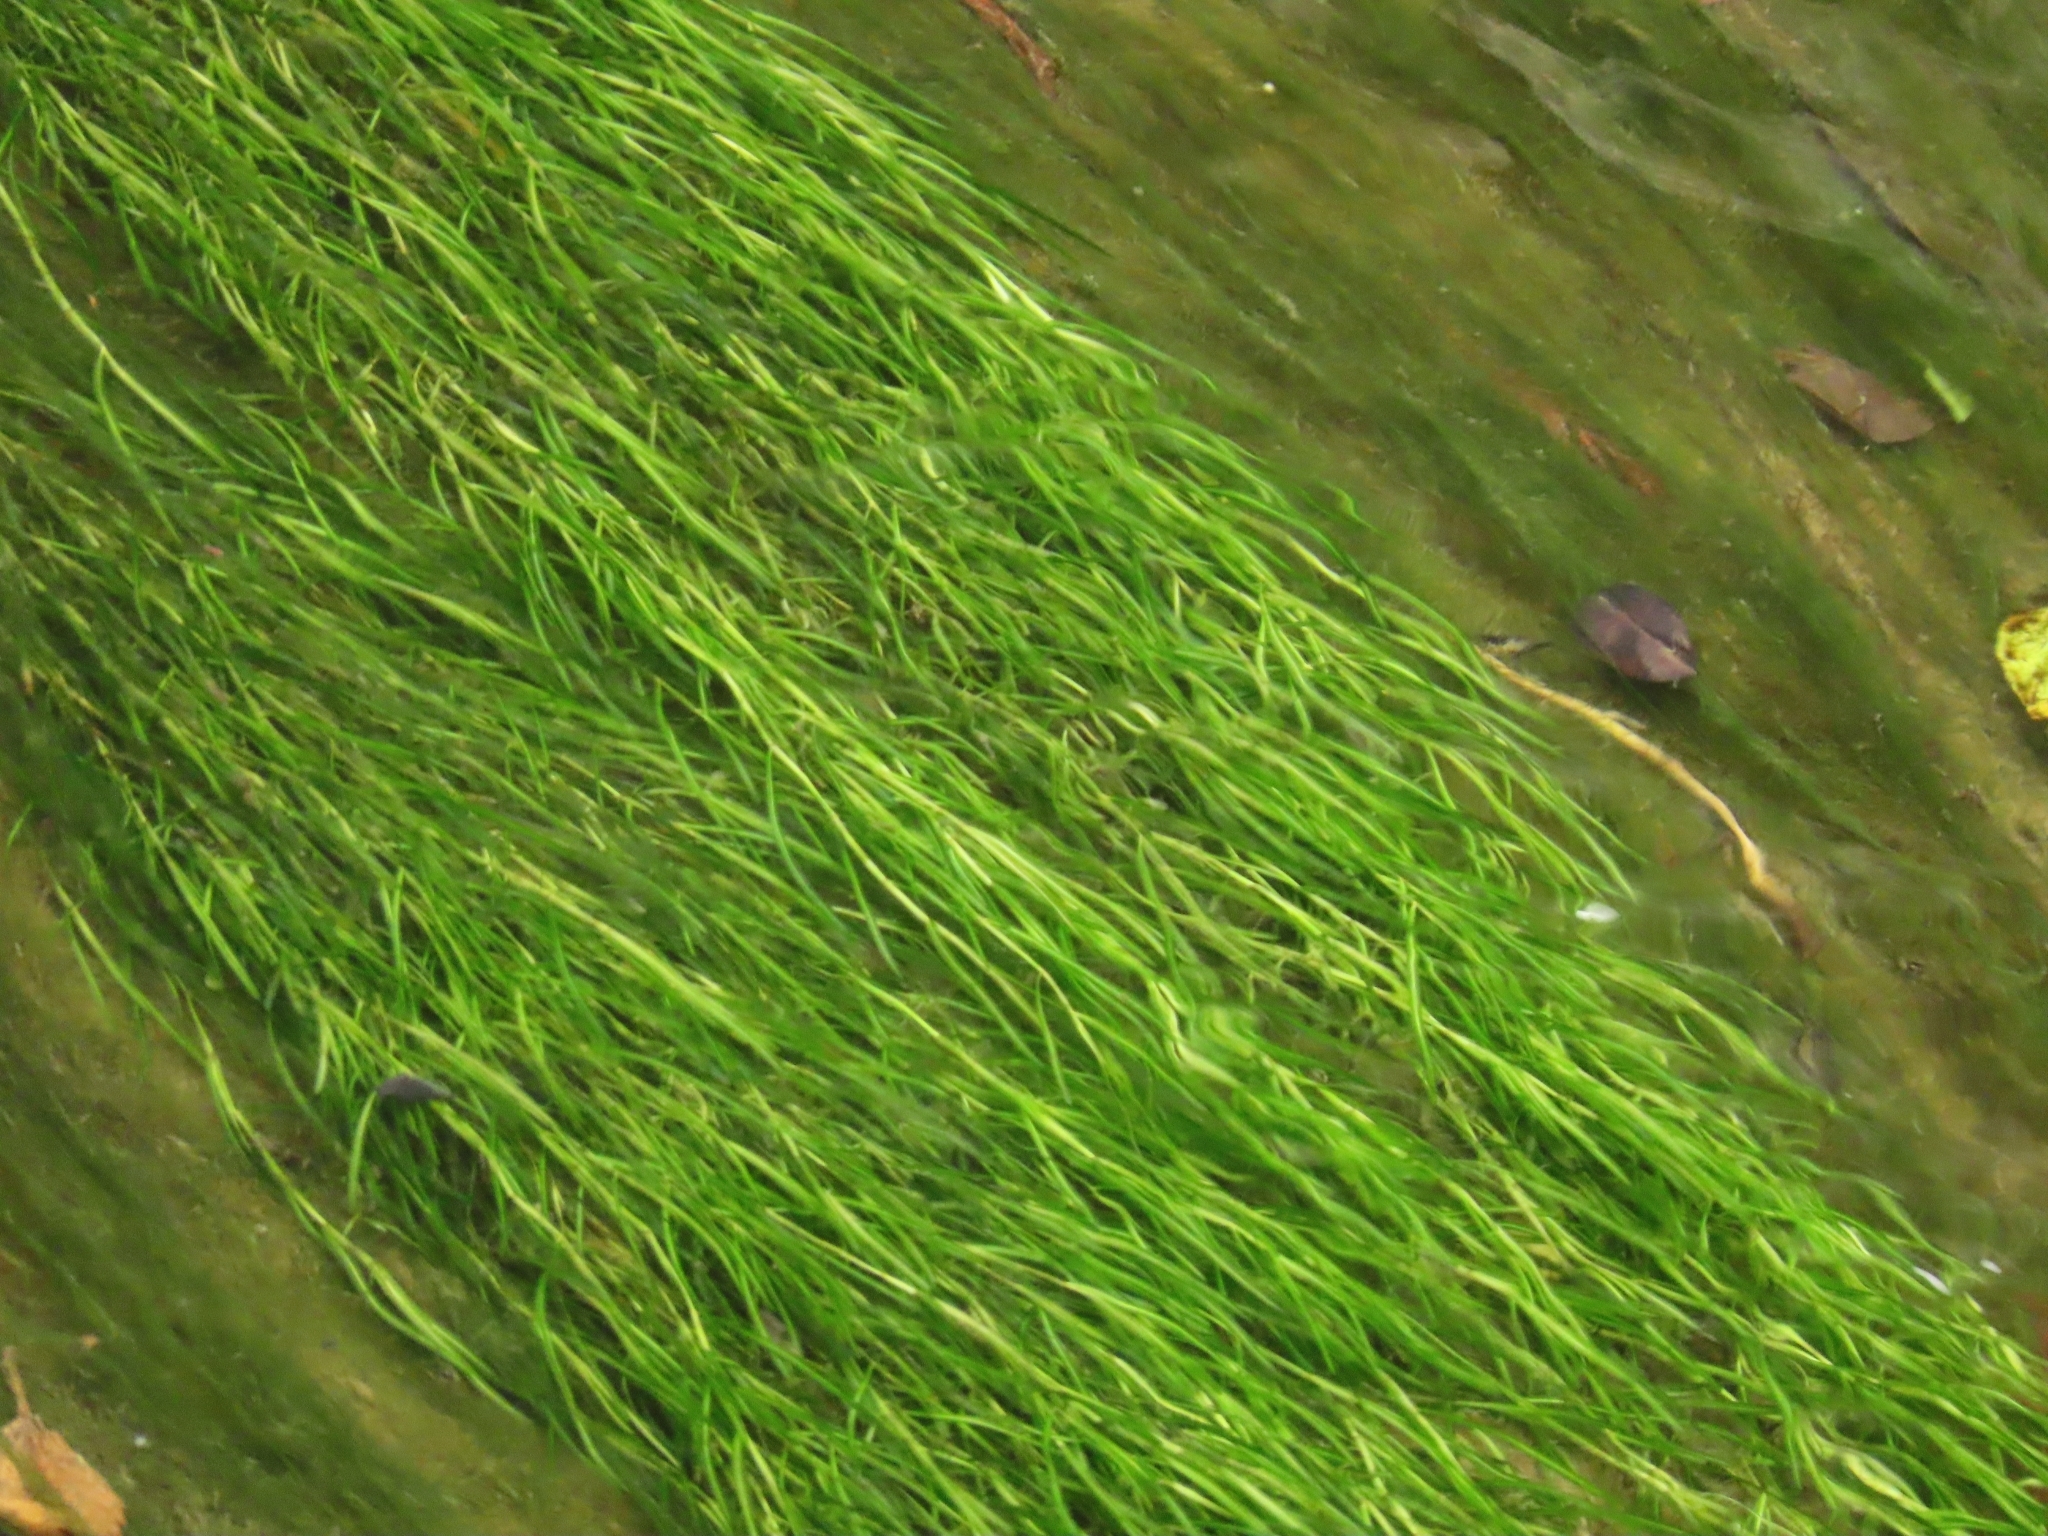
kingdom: Plantae
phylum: Tracheophyta
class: Liliopsida
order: Alismatales
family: Potamogetonaceae
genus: Potamogeton
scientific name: Potamogeton pusillus
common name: Lesser pondweed
